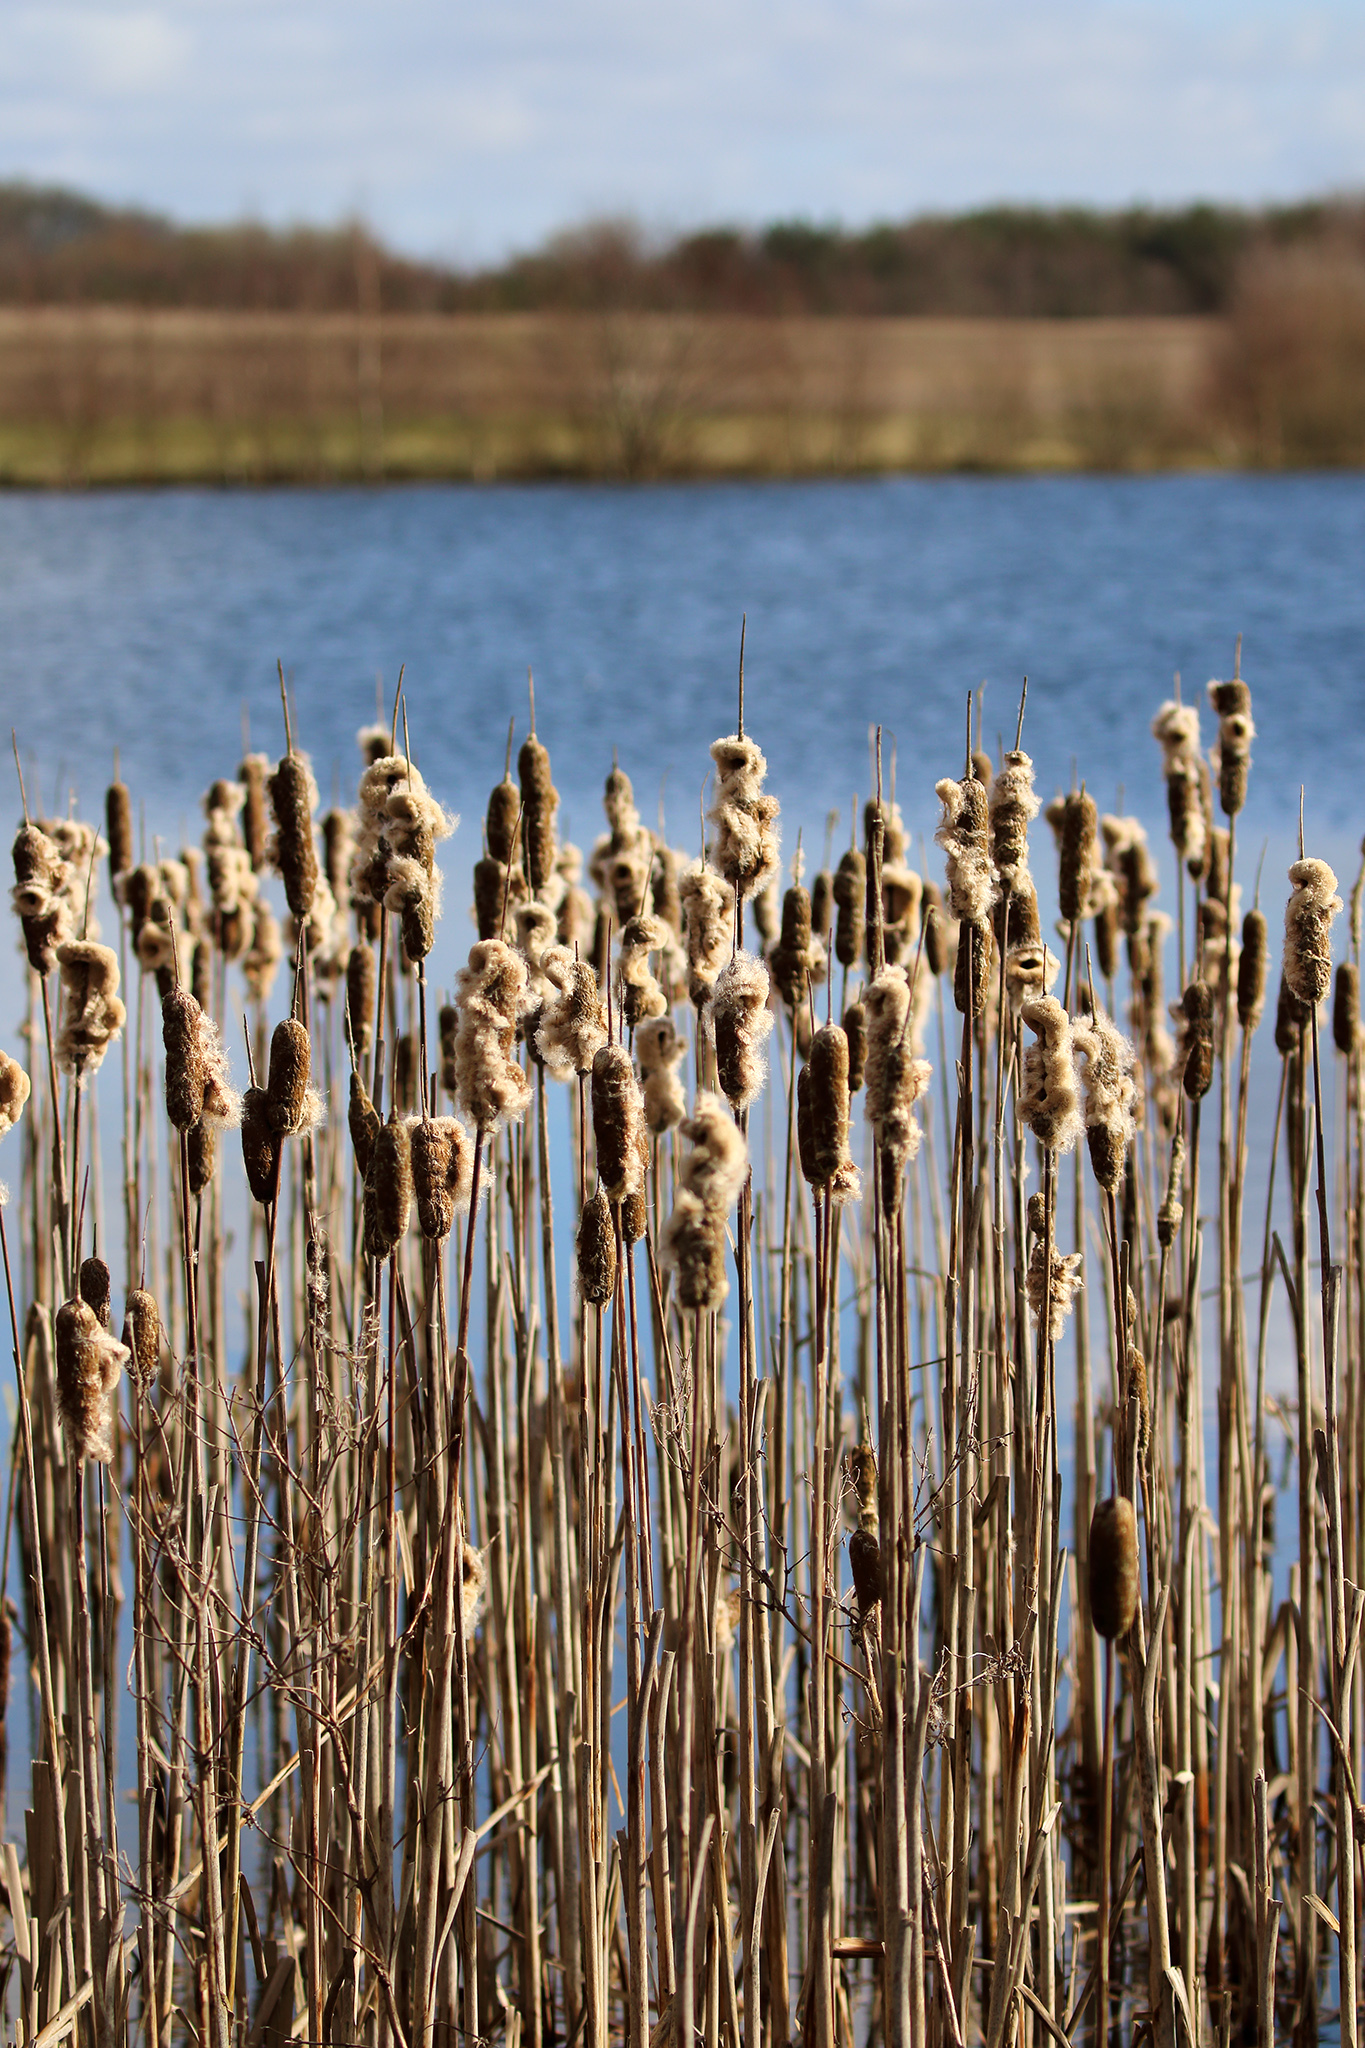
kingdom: Plantae
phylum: Tracheophyta
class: Liliopsida
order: Poales
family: Typhaceae
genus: Typha
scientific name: Typha latifolia
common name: Broadleaf cattail
